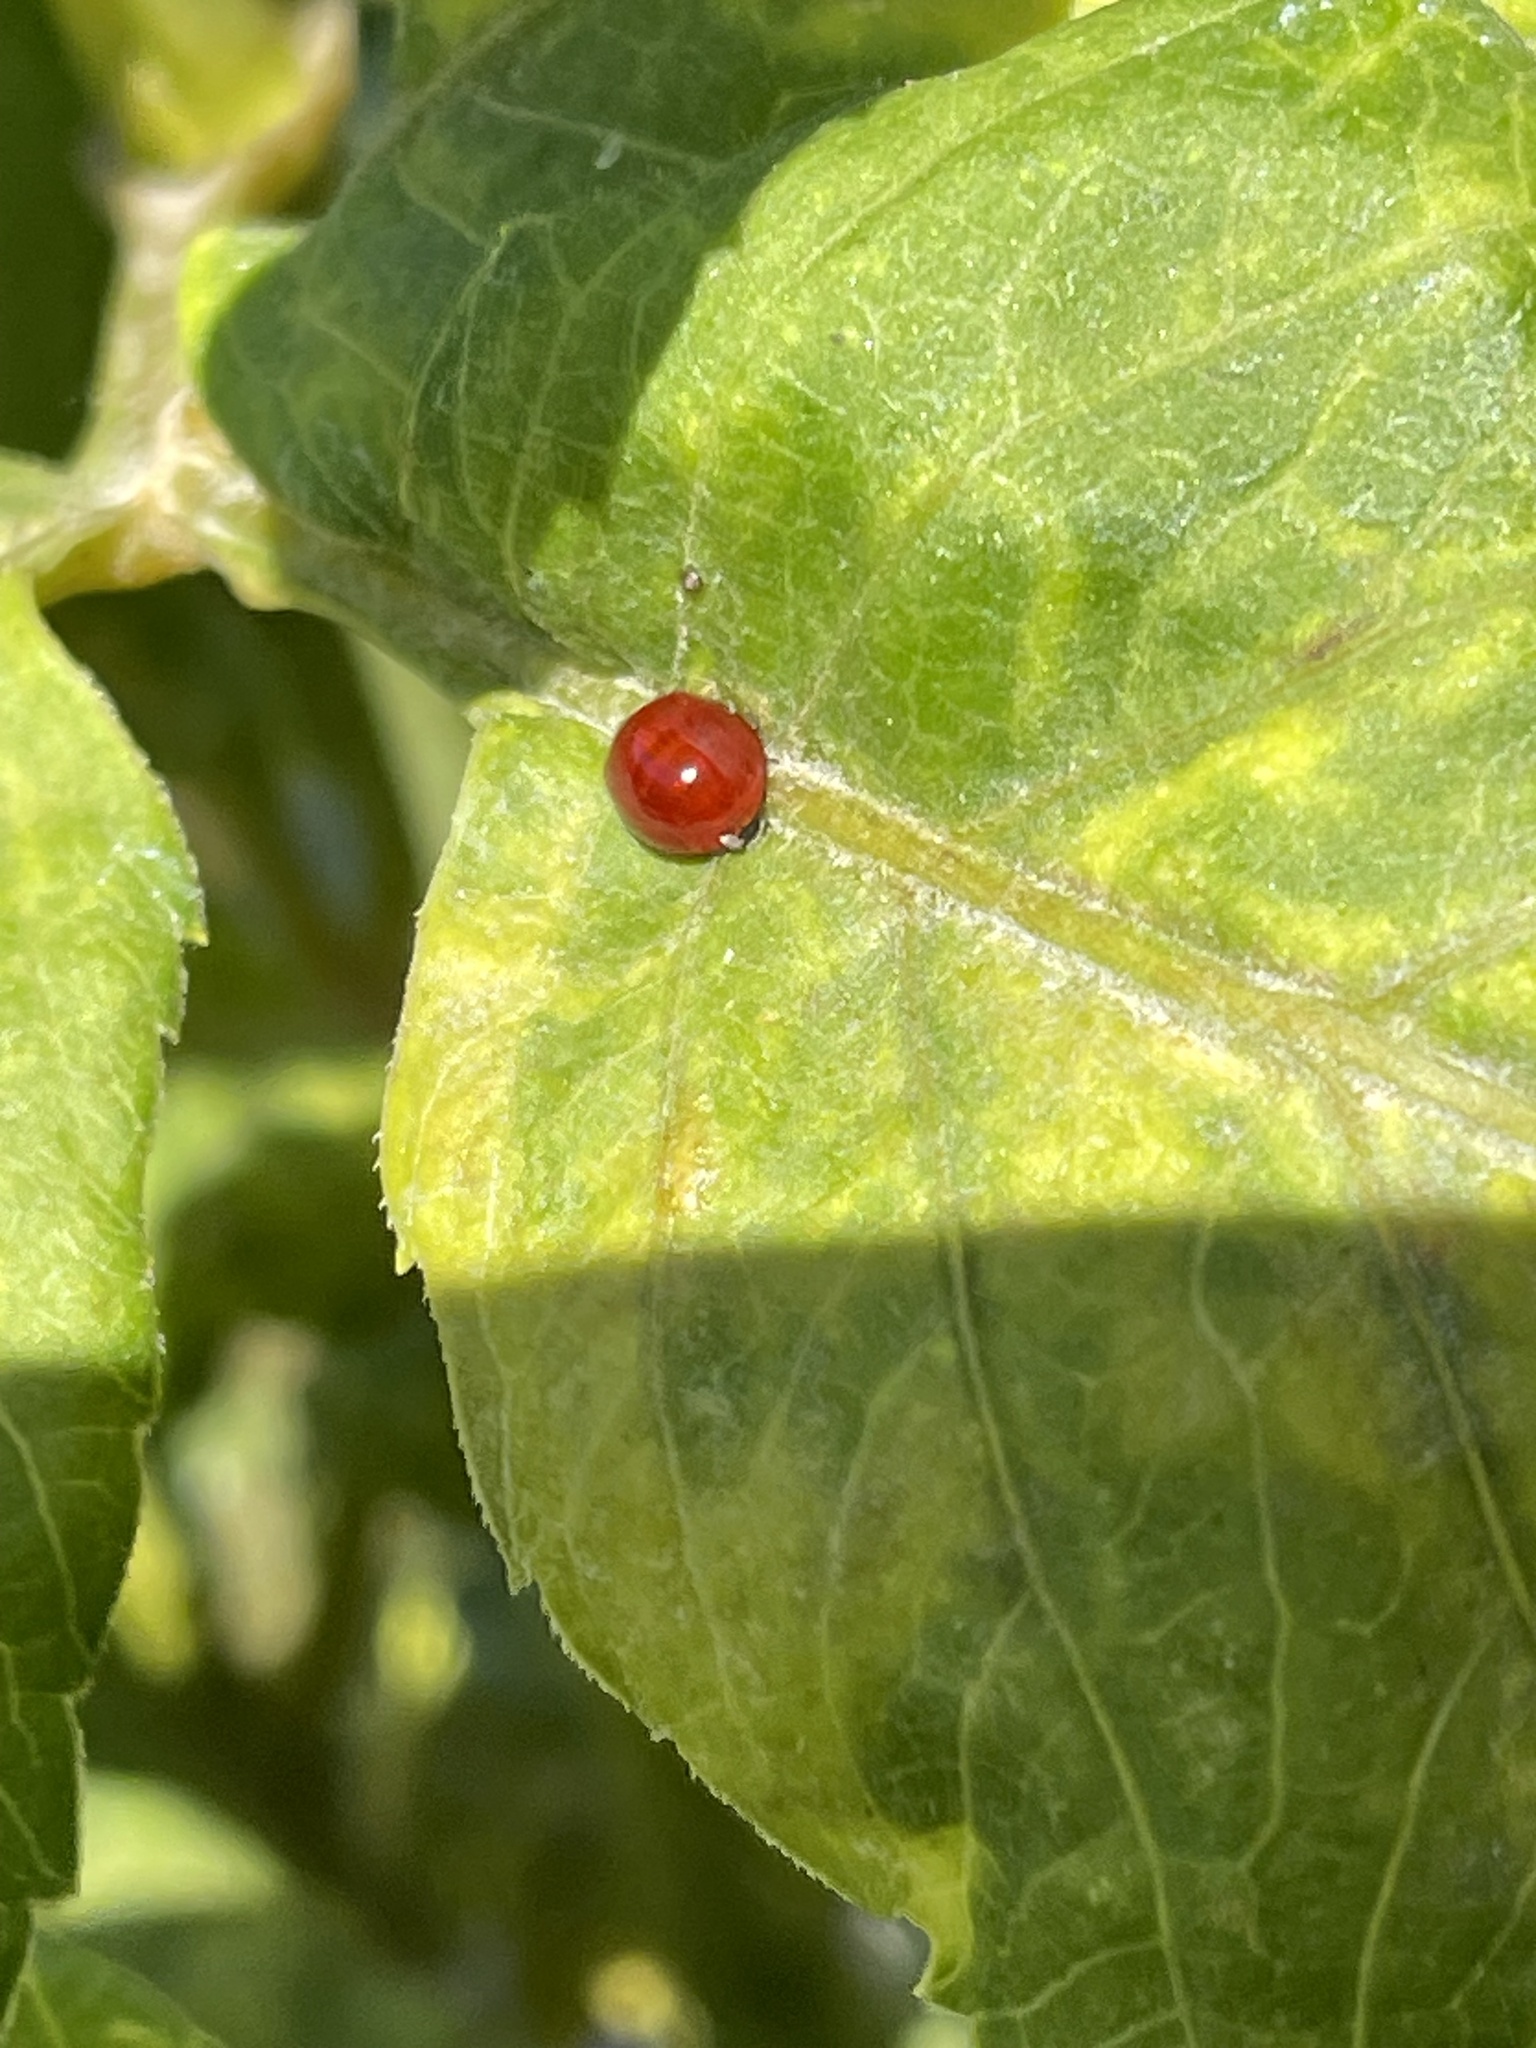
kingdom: Animalia
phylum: Arthropoda
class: Insecta
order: Coleoptera
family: Coccinellidae
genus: Cycloneda
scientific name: Cycloneda sanguinea
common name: Ladybird beetle
